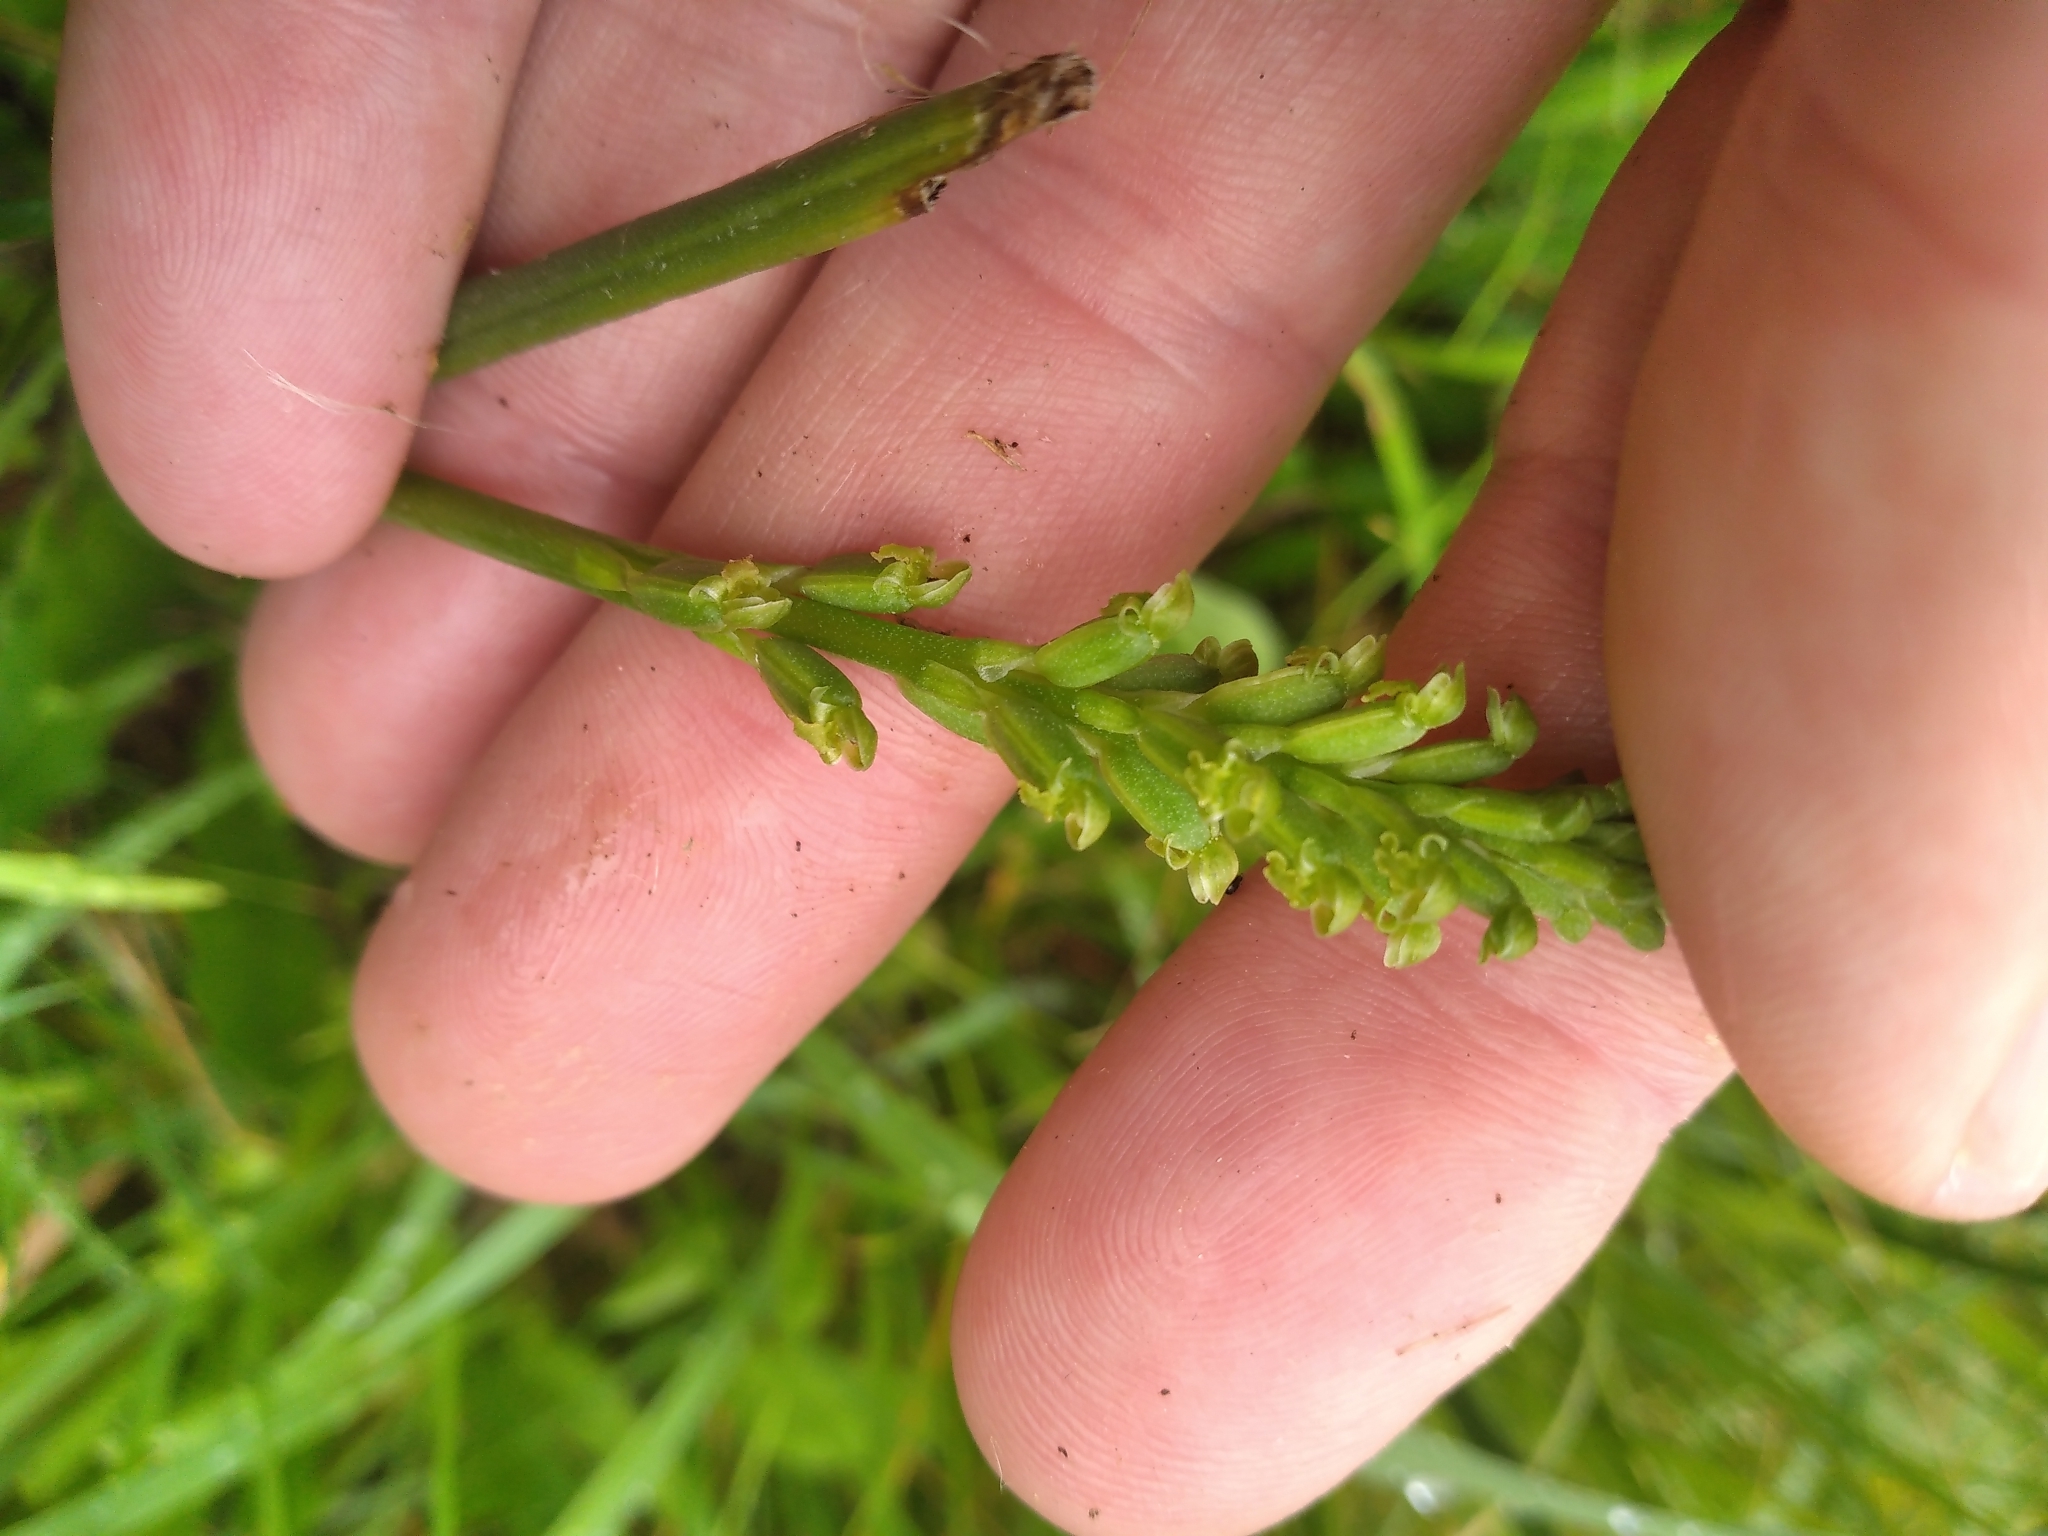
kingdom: Plantae
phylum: Tracheophyta
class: Liliopsida
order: Asparagales
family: Orchidaceae
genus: Microtis
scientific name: Microtis unifolia
